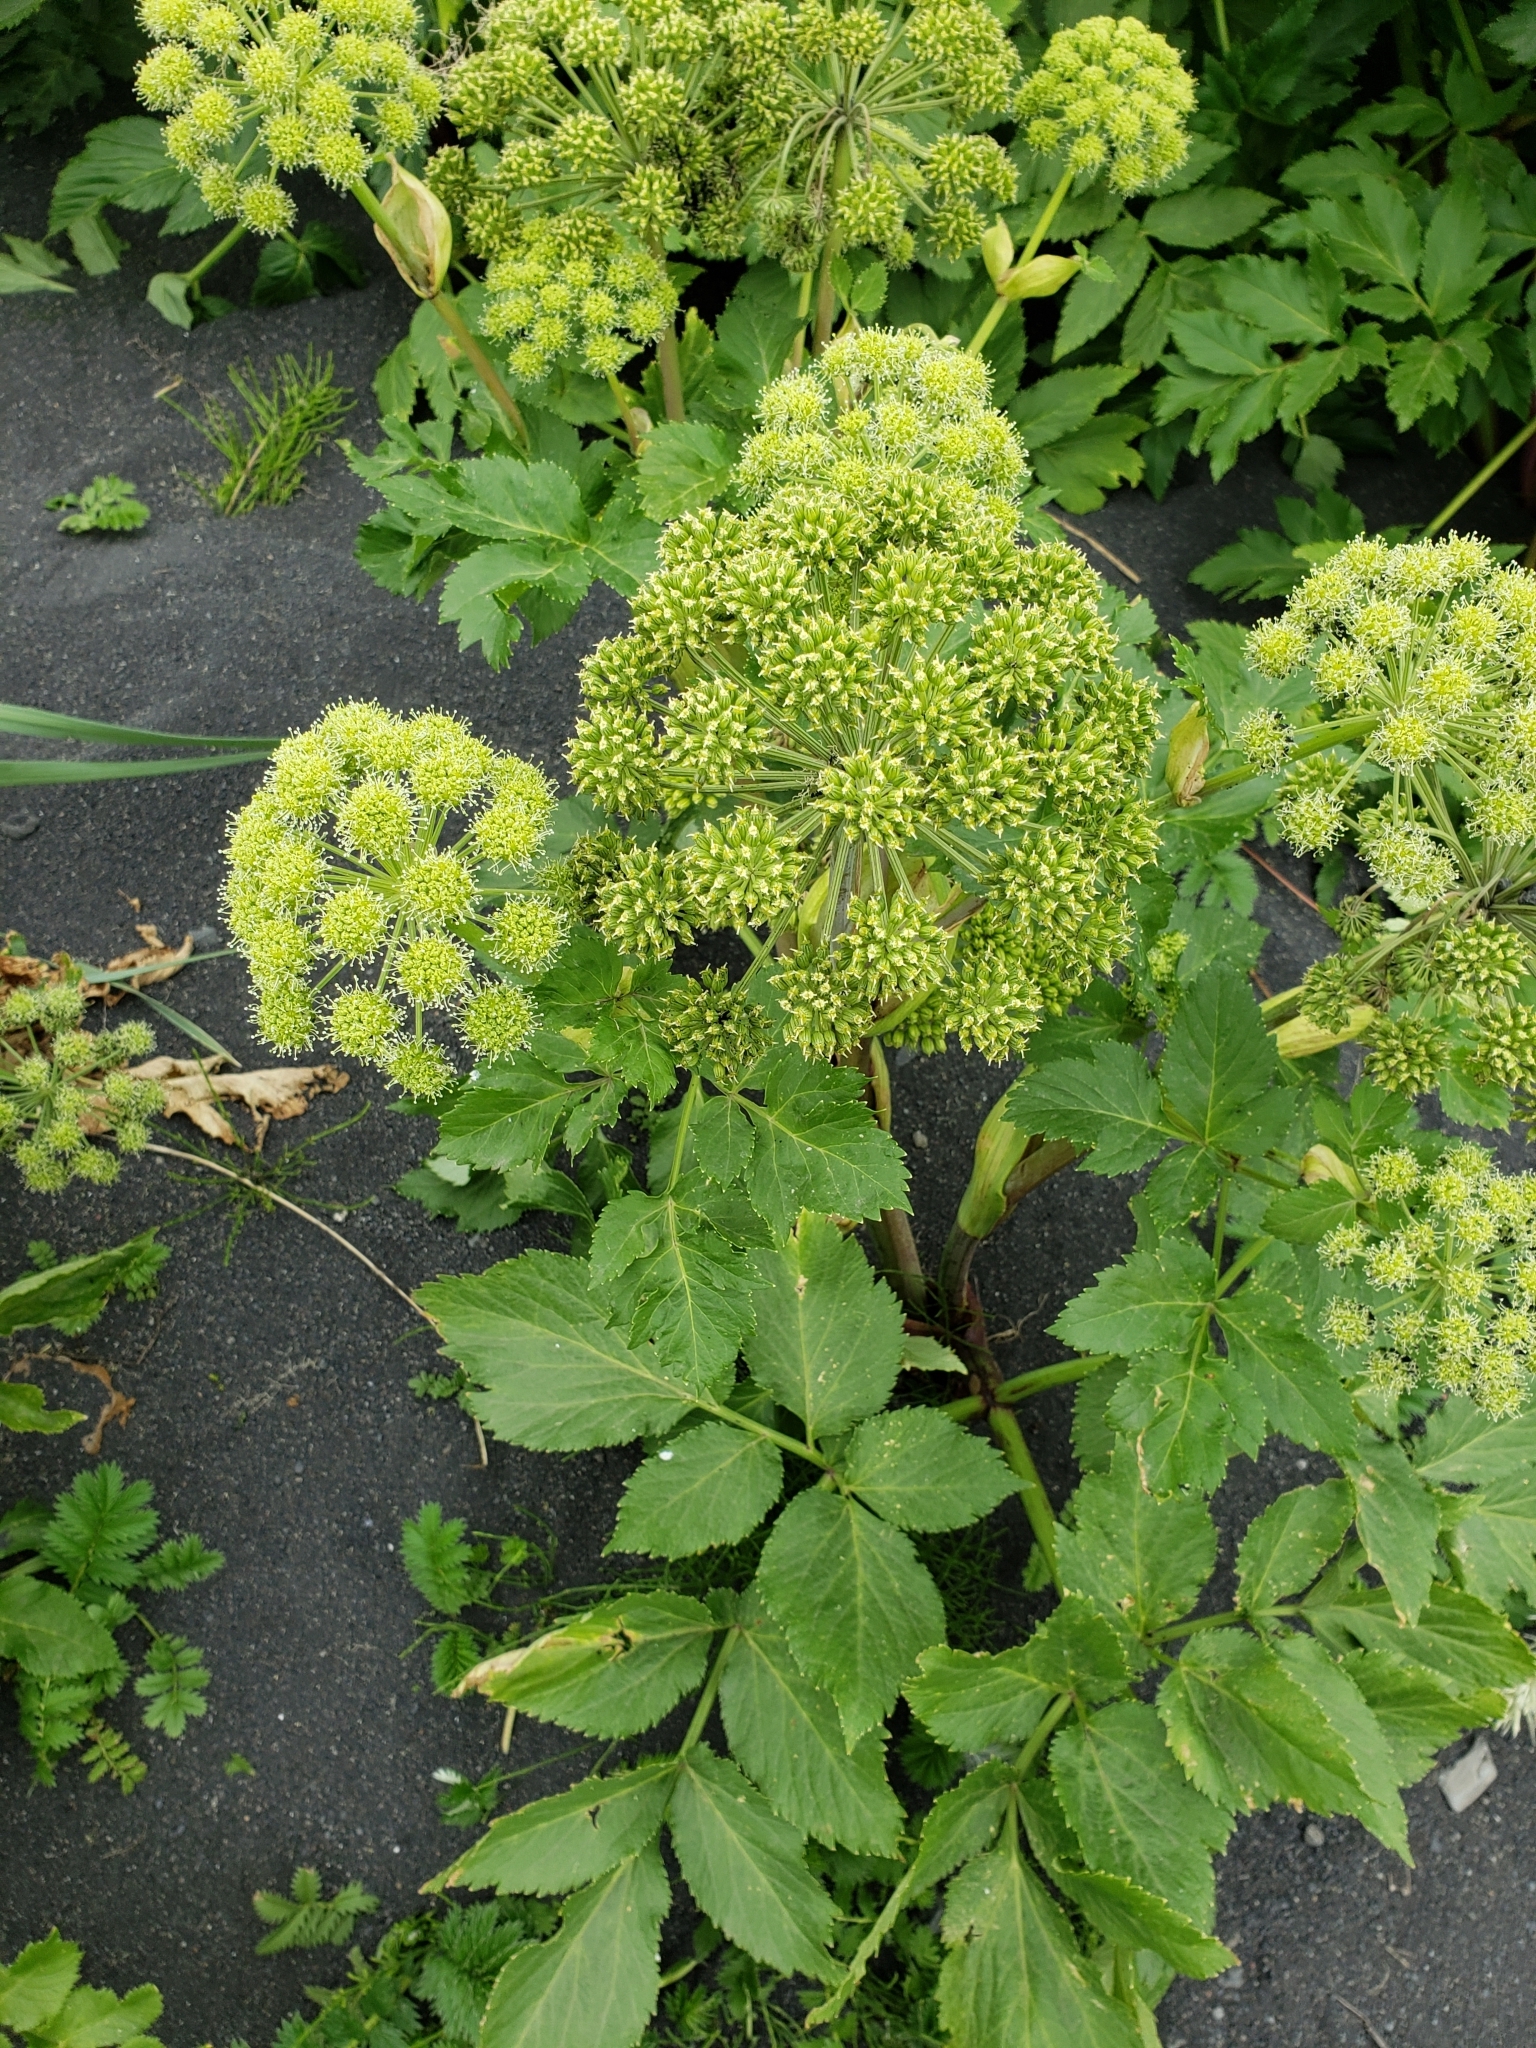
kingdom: Plantae
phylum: Tracheophyta
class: Magnoliopsida
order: Apiales
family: Apiaceae
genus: Angelica
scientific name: Angelica archangelica
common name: Garden angelica
